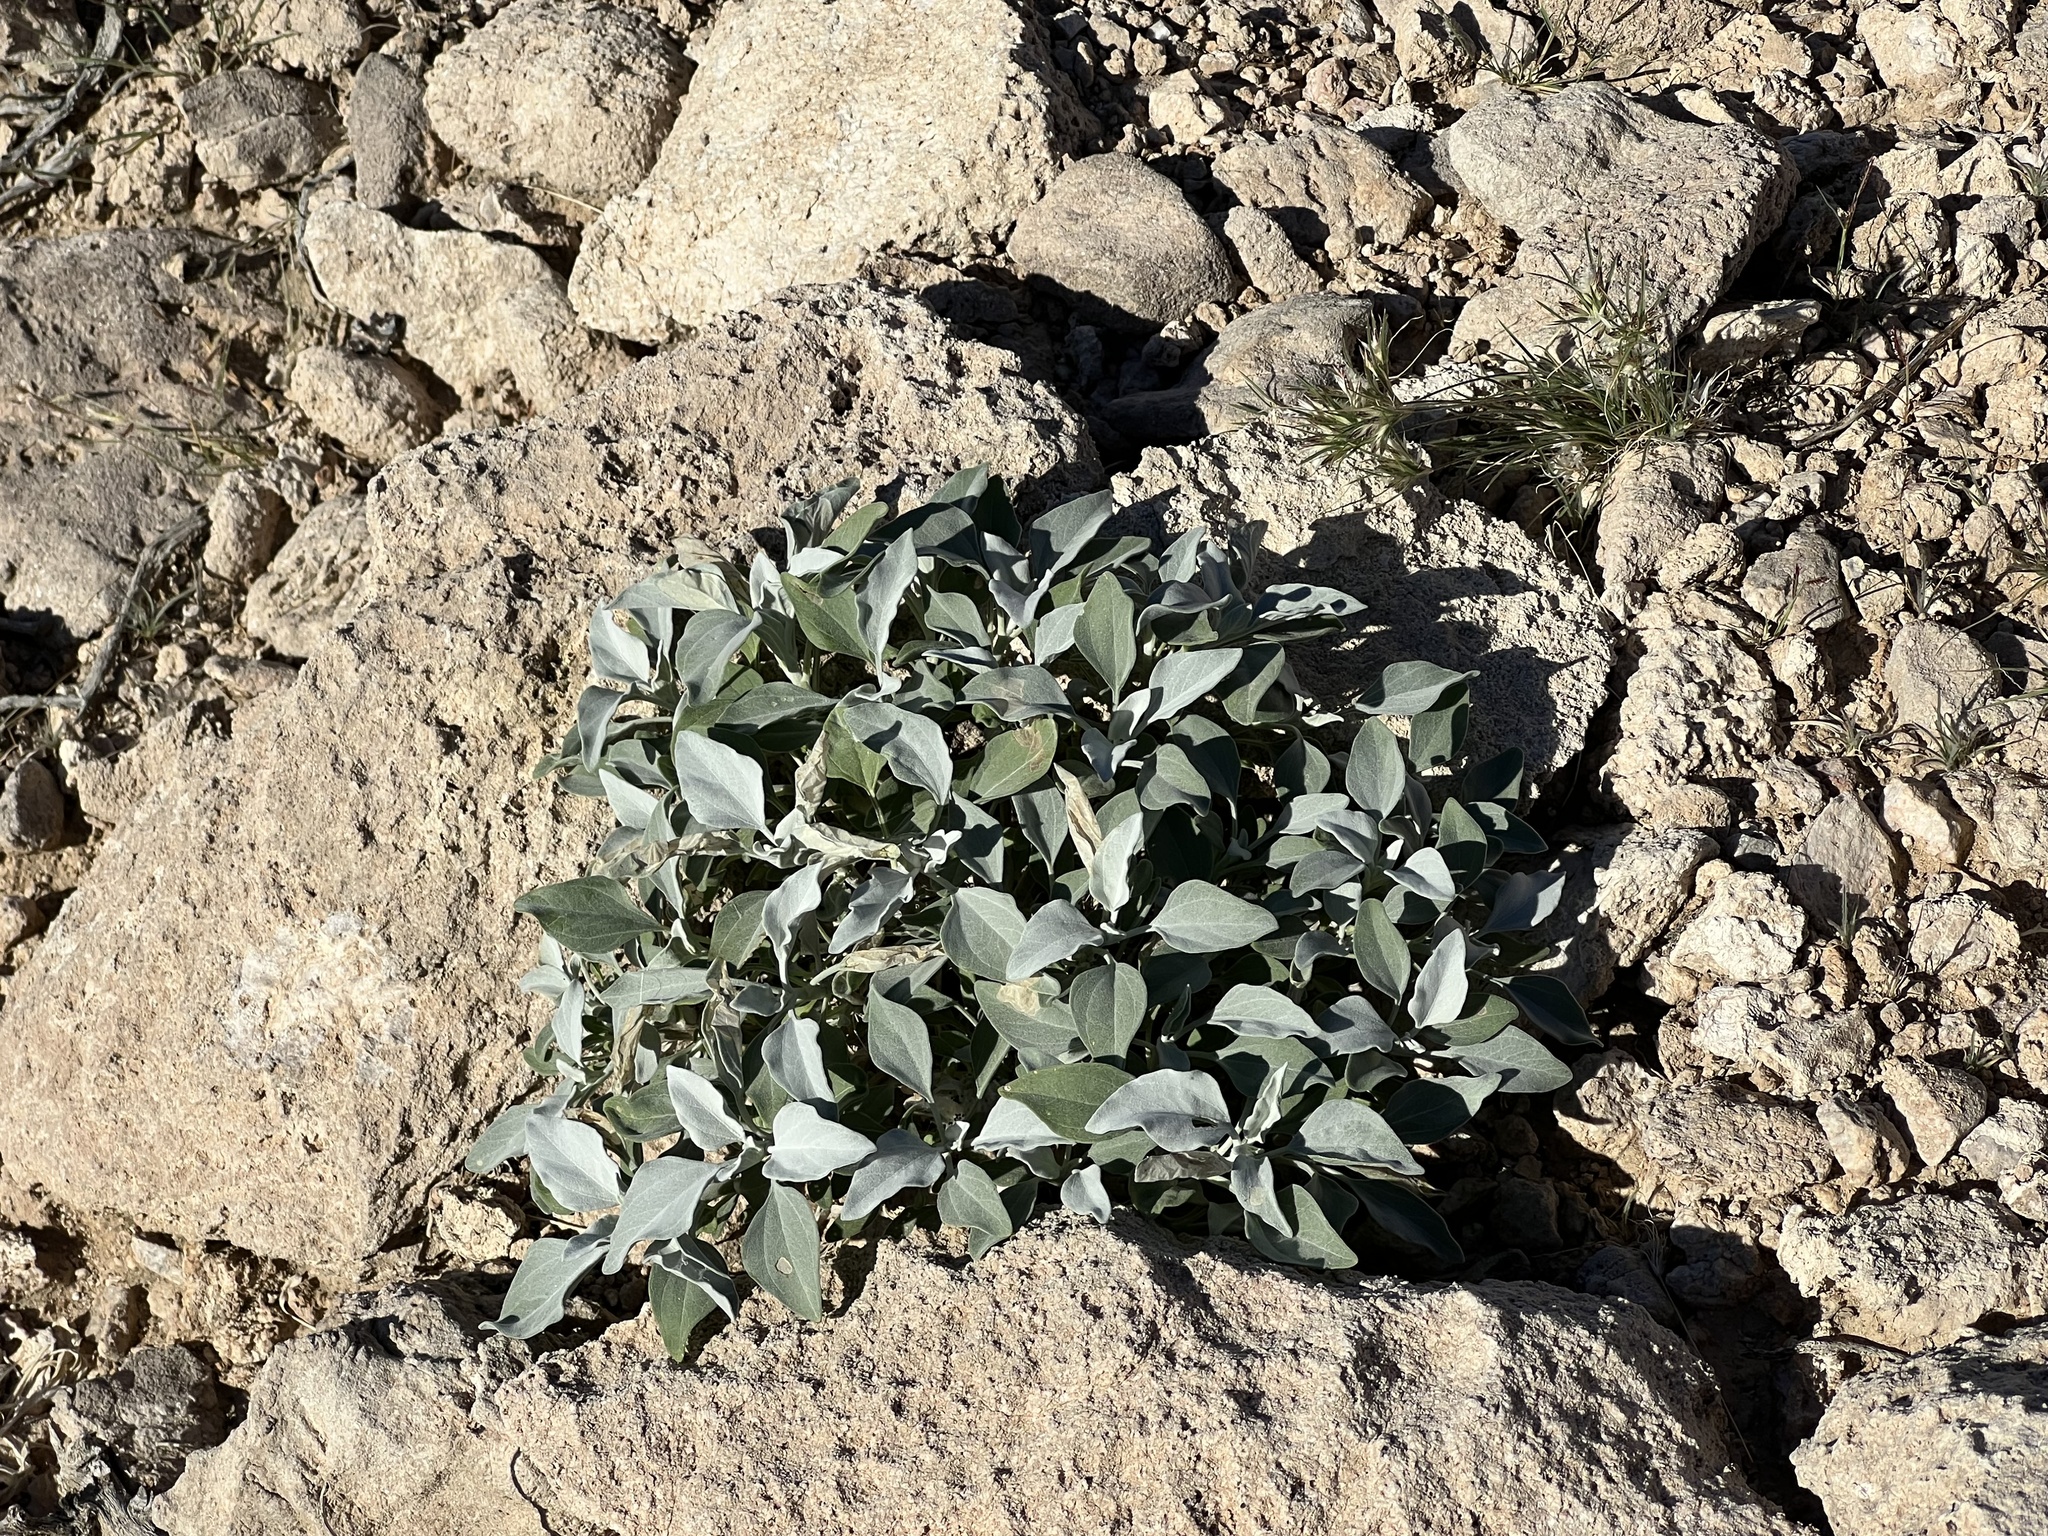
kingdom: Plantae
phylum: Tracheophyta
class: Magnoliopsida
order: Asterales
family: Asteraceae
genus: Encelia
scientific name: Encelia farinosa
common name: Brittlebush
